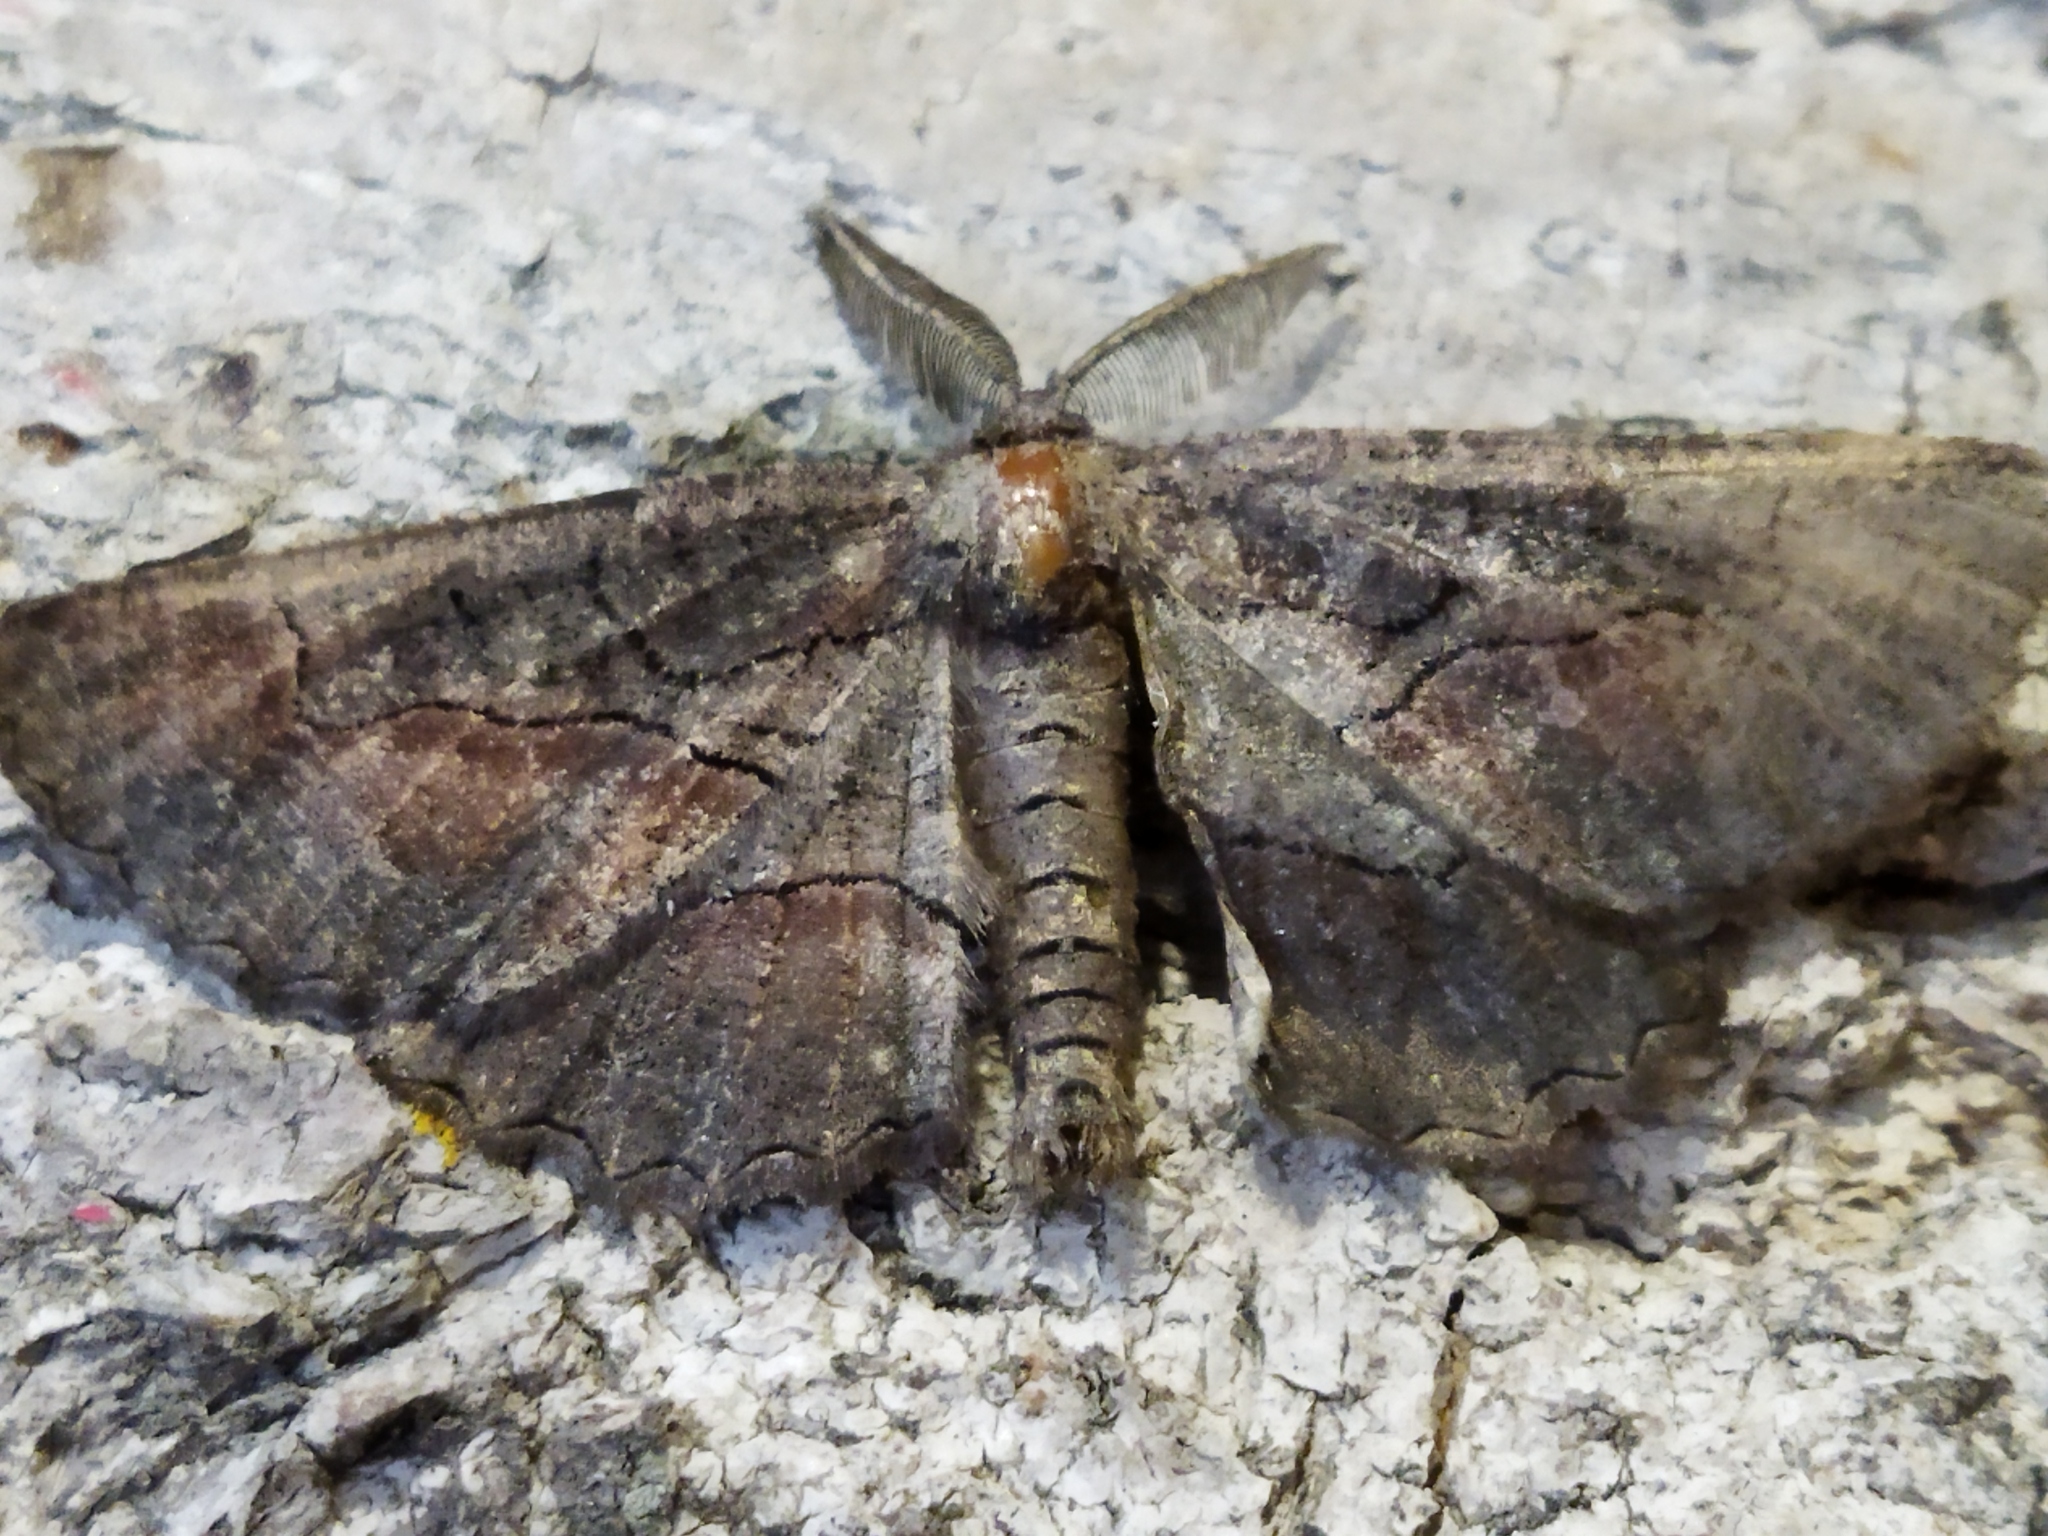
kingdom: Animalia
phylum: Arthropoda
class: Insecta
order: Lepidoptera
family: Geometridae
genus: Nychiodes
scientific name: Nychiodes waltheri
